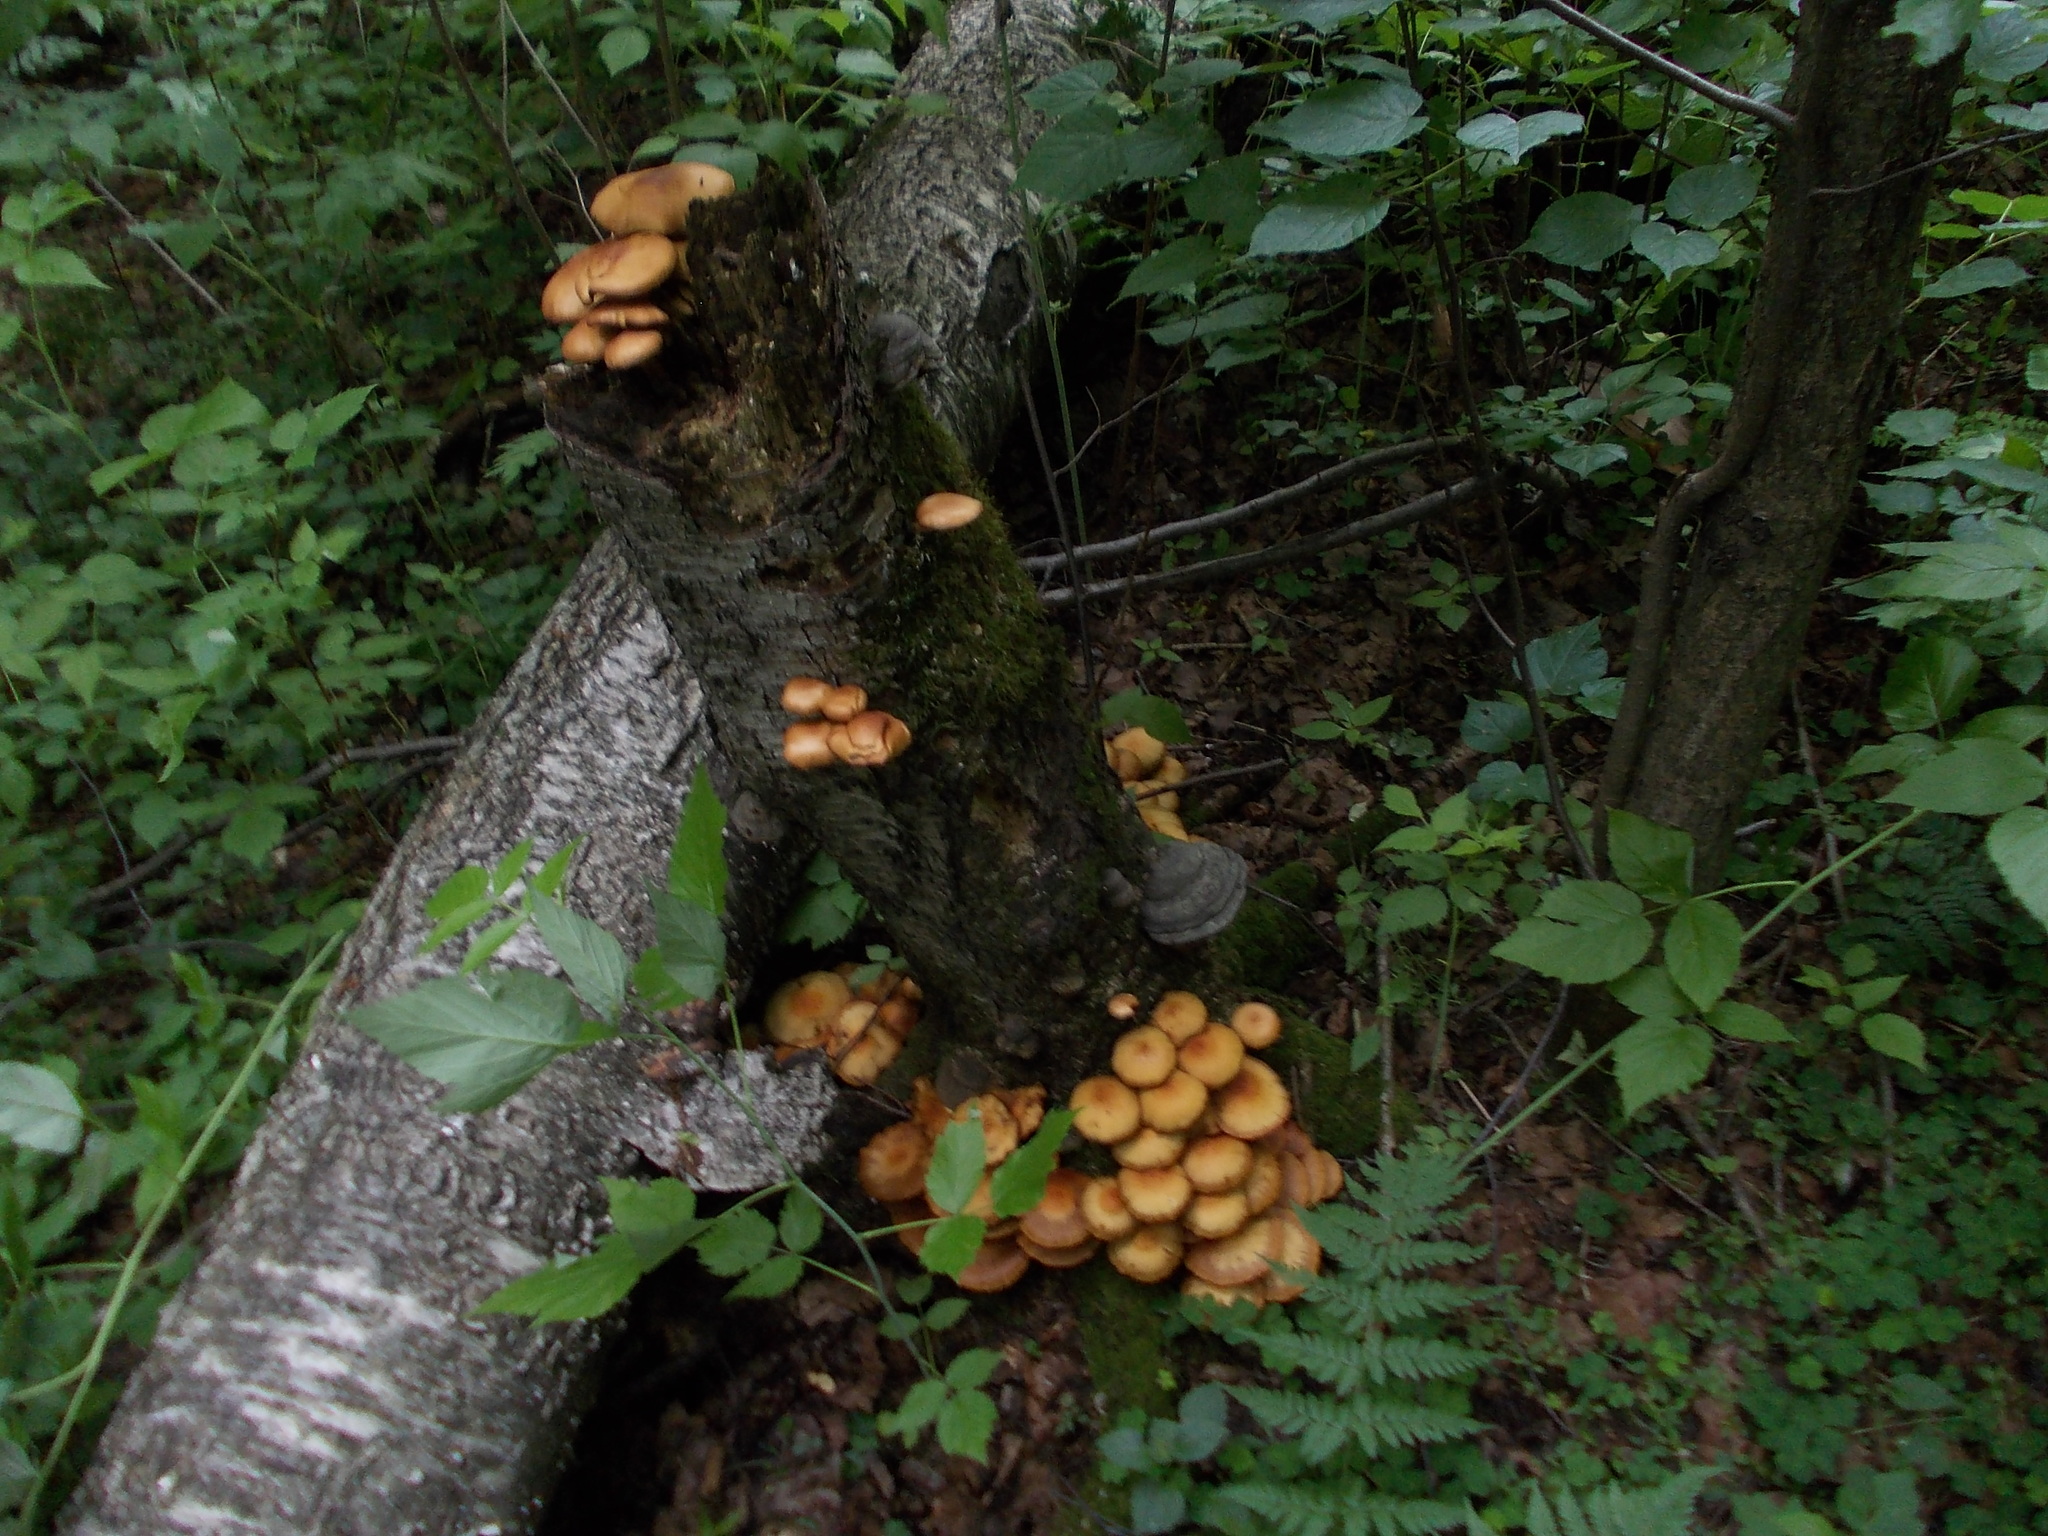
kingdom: Fungi
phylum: Basidiomycota
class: Agaricomycetes
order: Agaricales
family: Strophariaceae
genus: Kuehneromyces
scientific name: Kuehneromyces mutabilis
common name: Sheathed woodtuft
